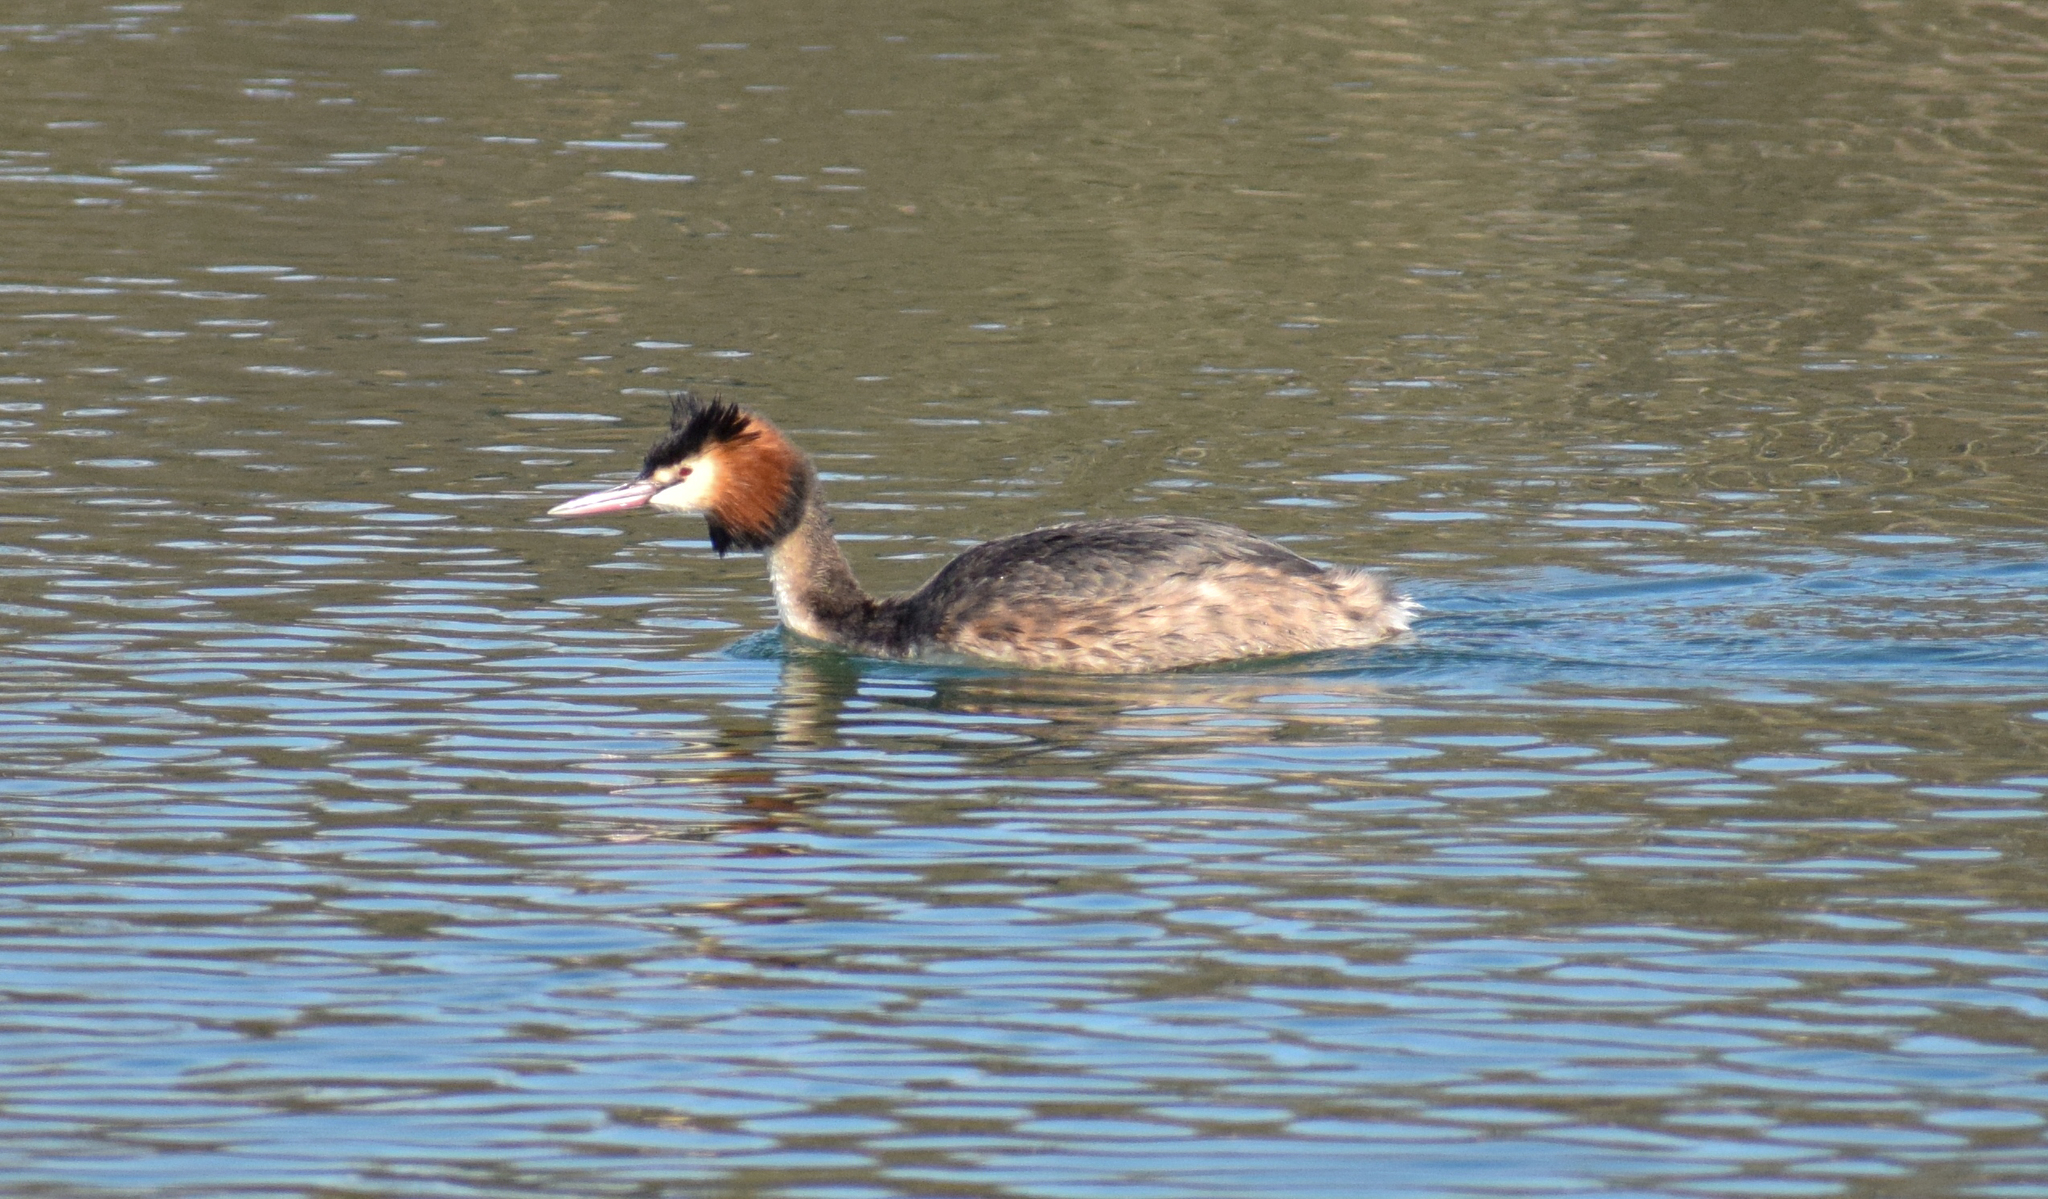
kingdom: Animalia
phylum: Chordata
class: Aves
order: Podicipediformes
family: Podicipedidae
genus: Podiceps
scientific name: Podiceps cristatus
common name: Great crested grebe
